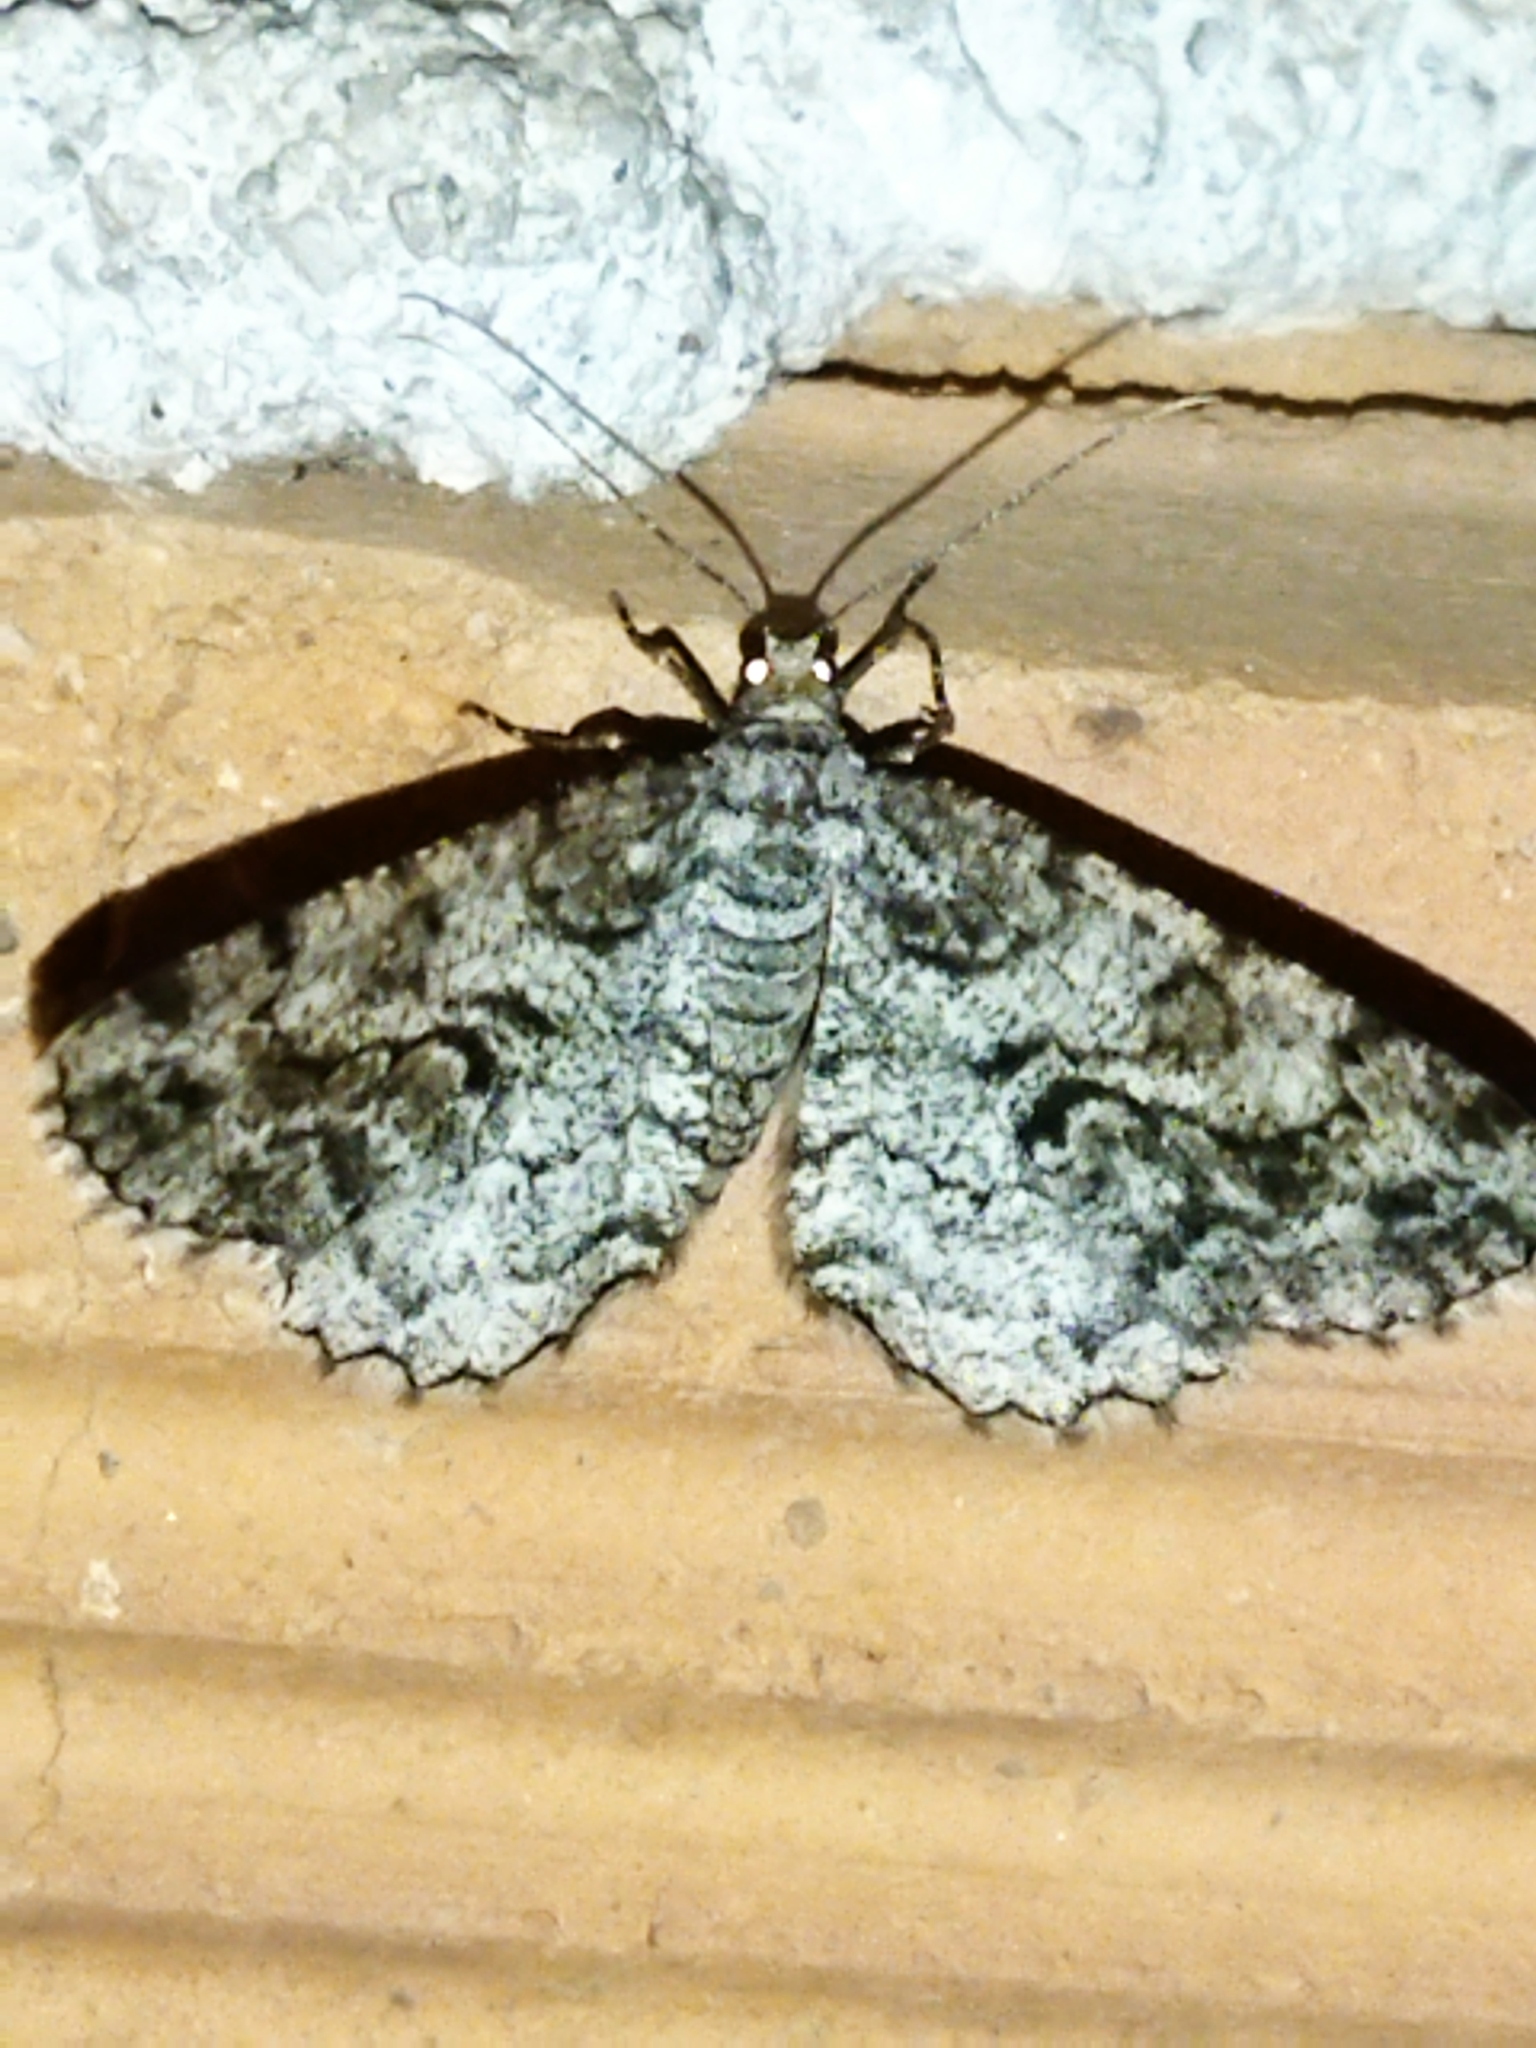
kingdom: Animalia
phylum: Arthropoda
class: Insecta
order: Lepidoptera
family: Geometridae
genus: Peribatodes
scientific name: Peribatodes secundaria
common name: Feathered beauty
